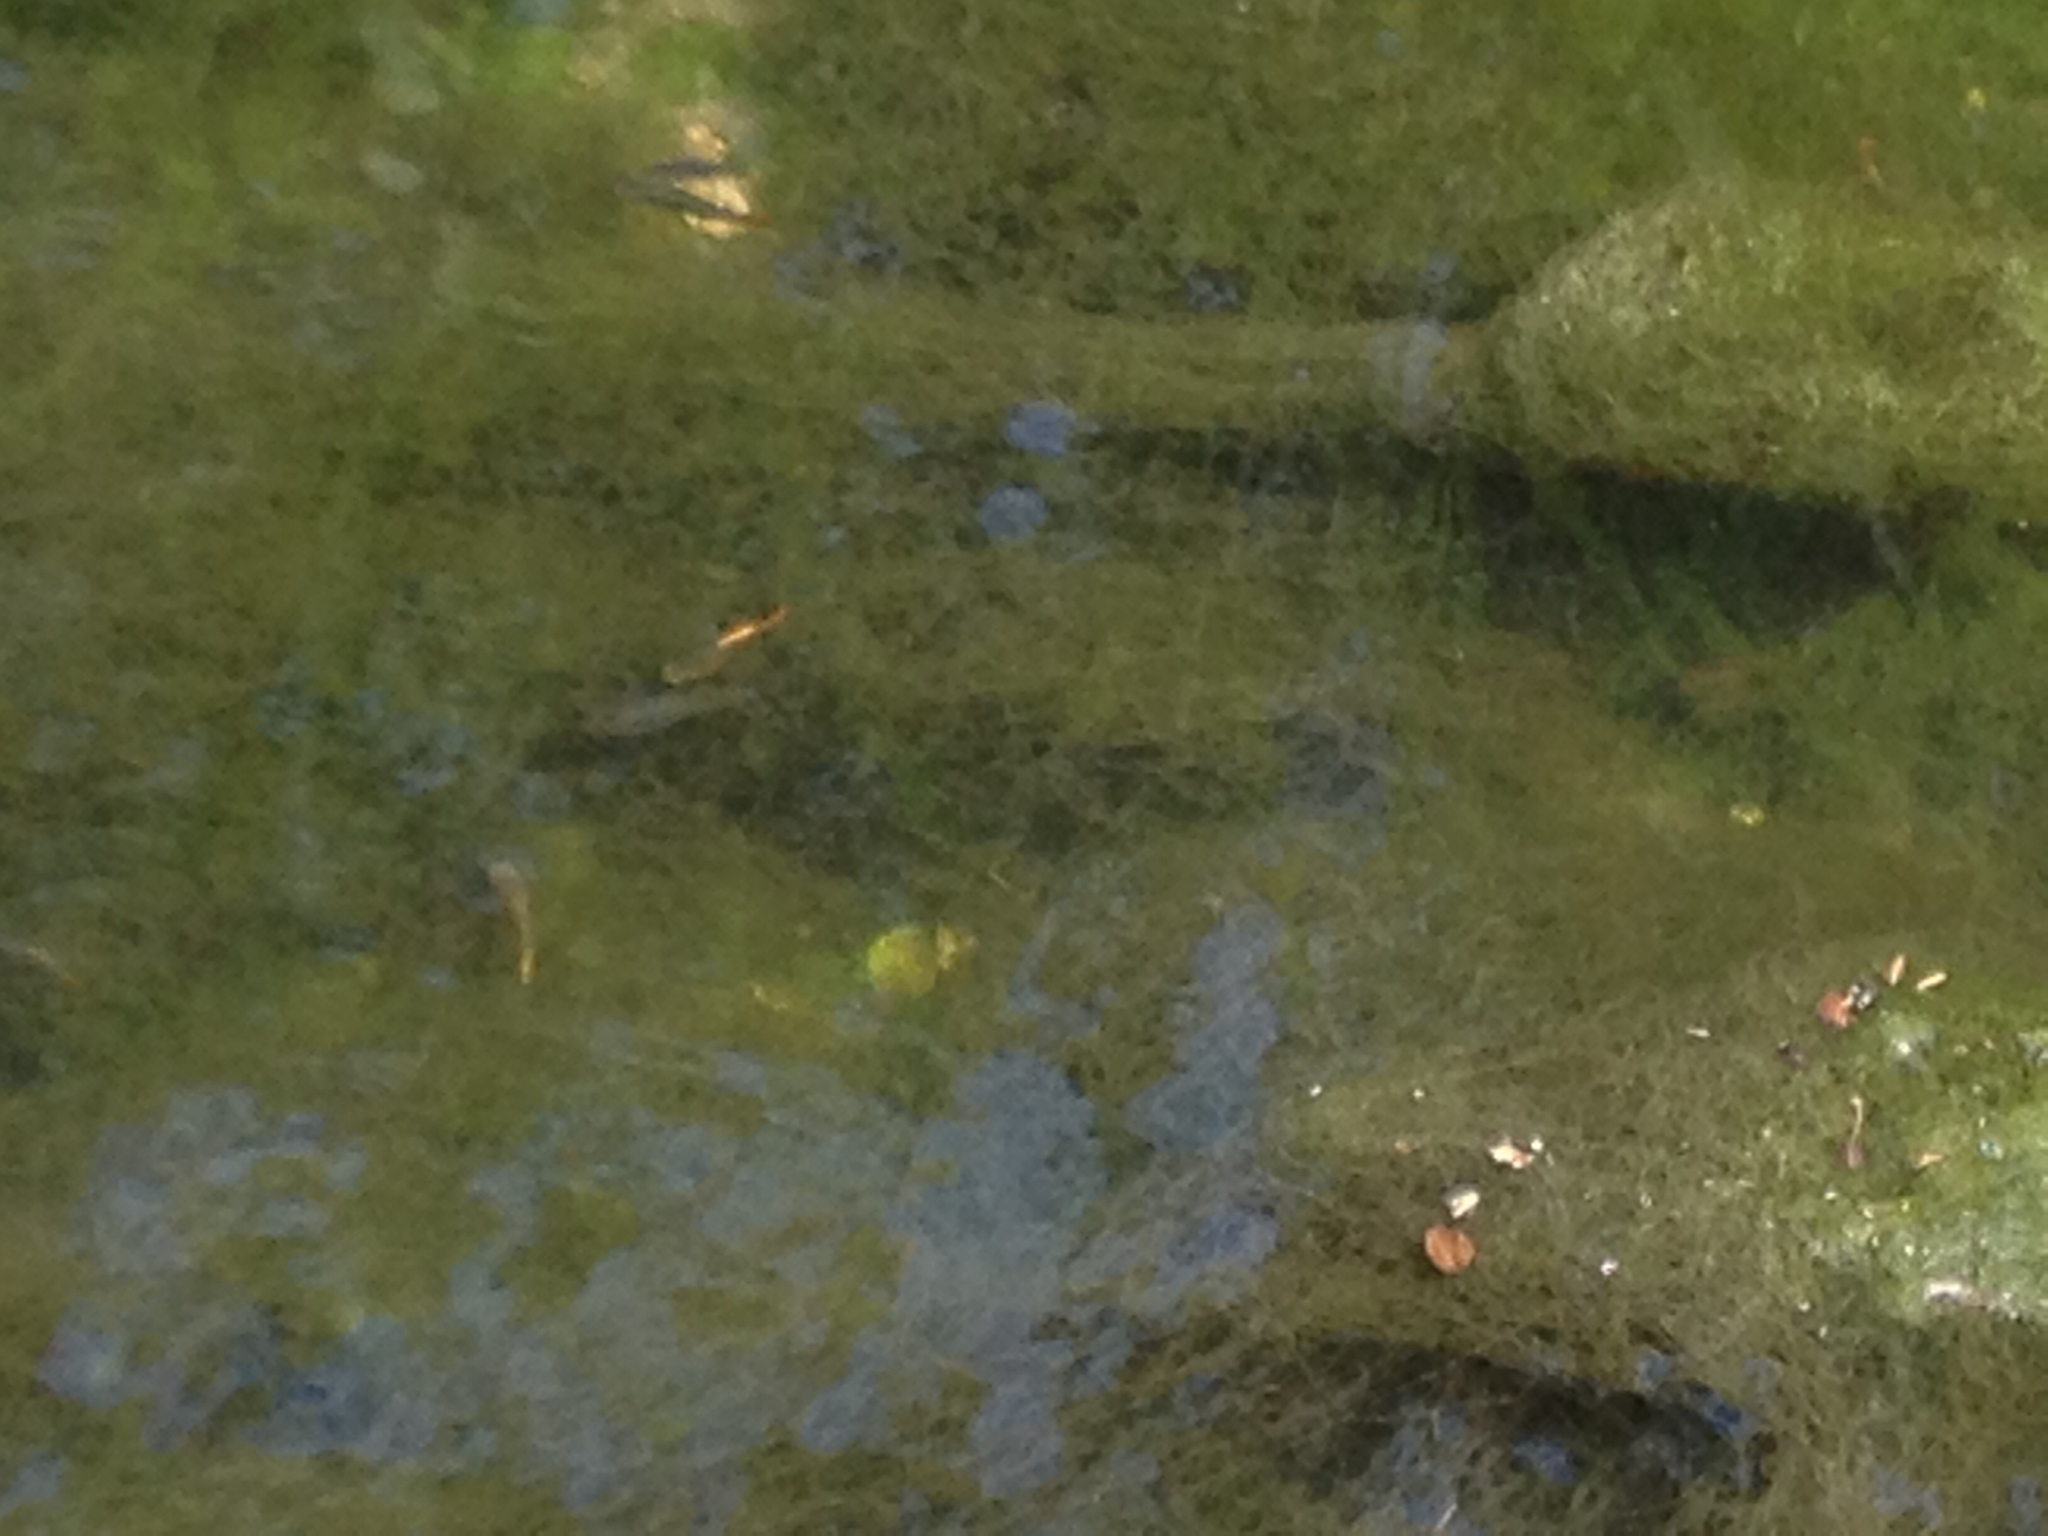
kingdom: Animalia
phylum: Chordata
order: Cyprinodontiformes
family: Poeciliidae
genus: Xiphophorus
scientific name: Xiphophorus variatus
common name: Variable platyfish
